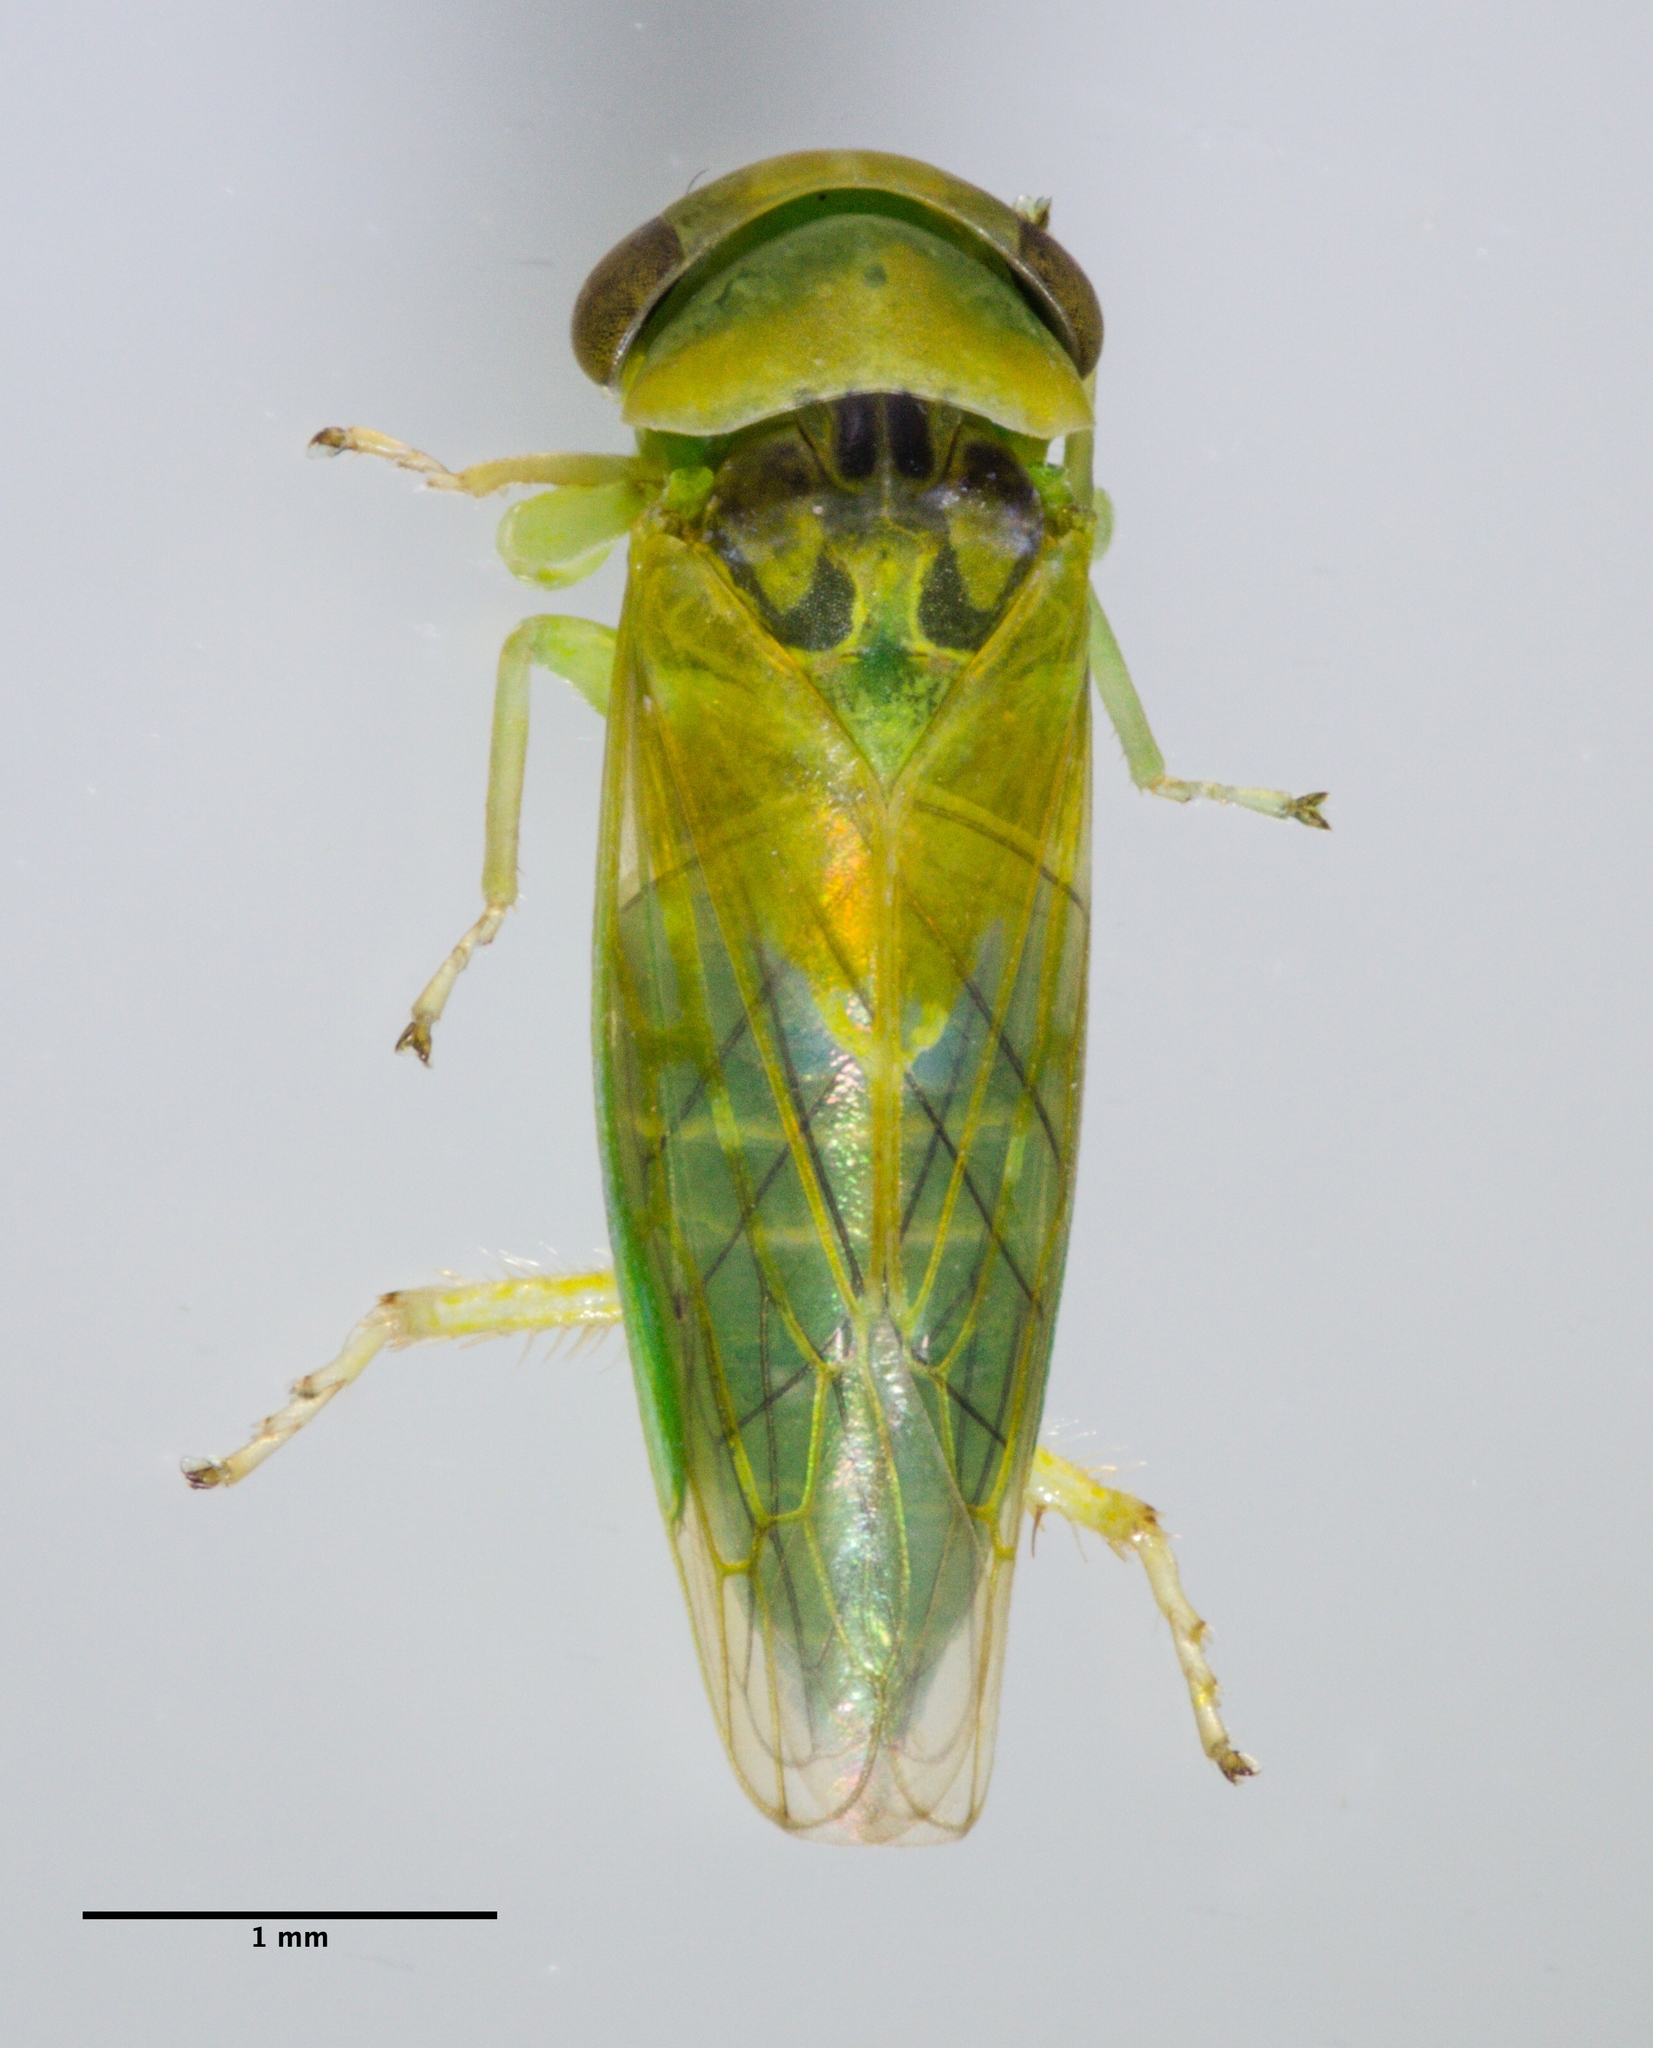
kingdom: Animalia
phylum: Arthropoda
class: Insecta
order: Hemiptera
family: Cicadellidae
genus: Idiocerus
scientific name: Idiocerus nervatus
